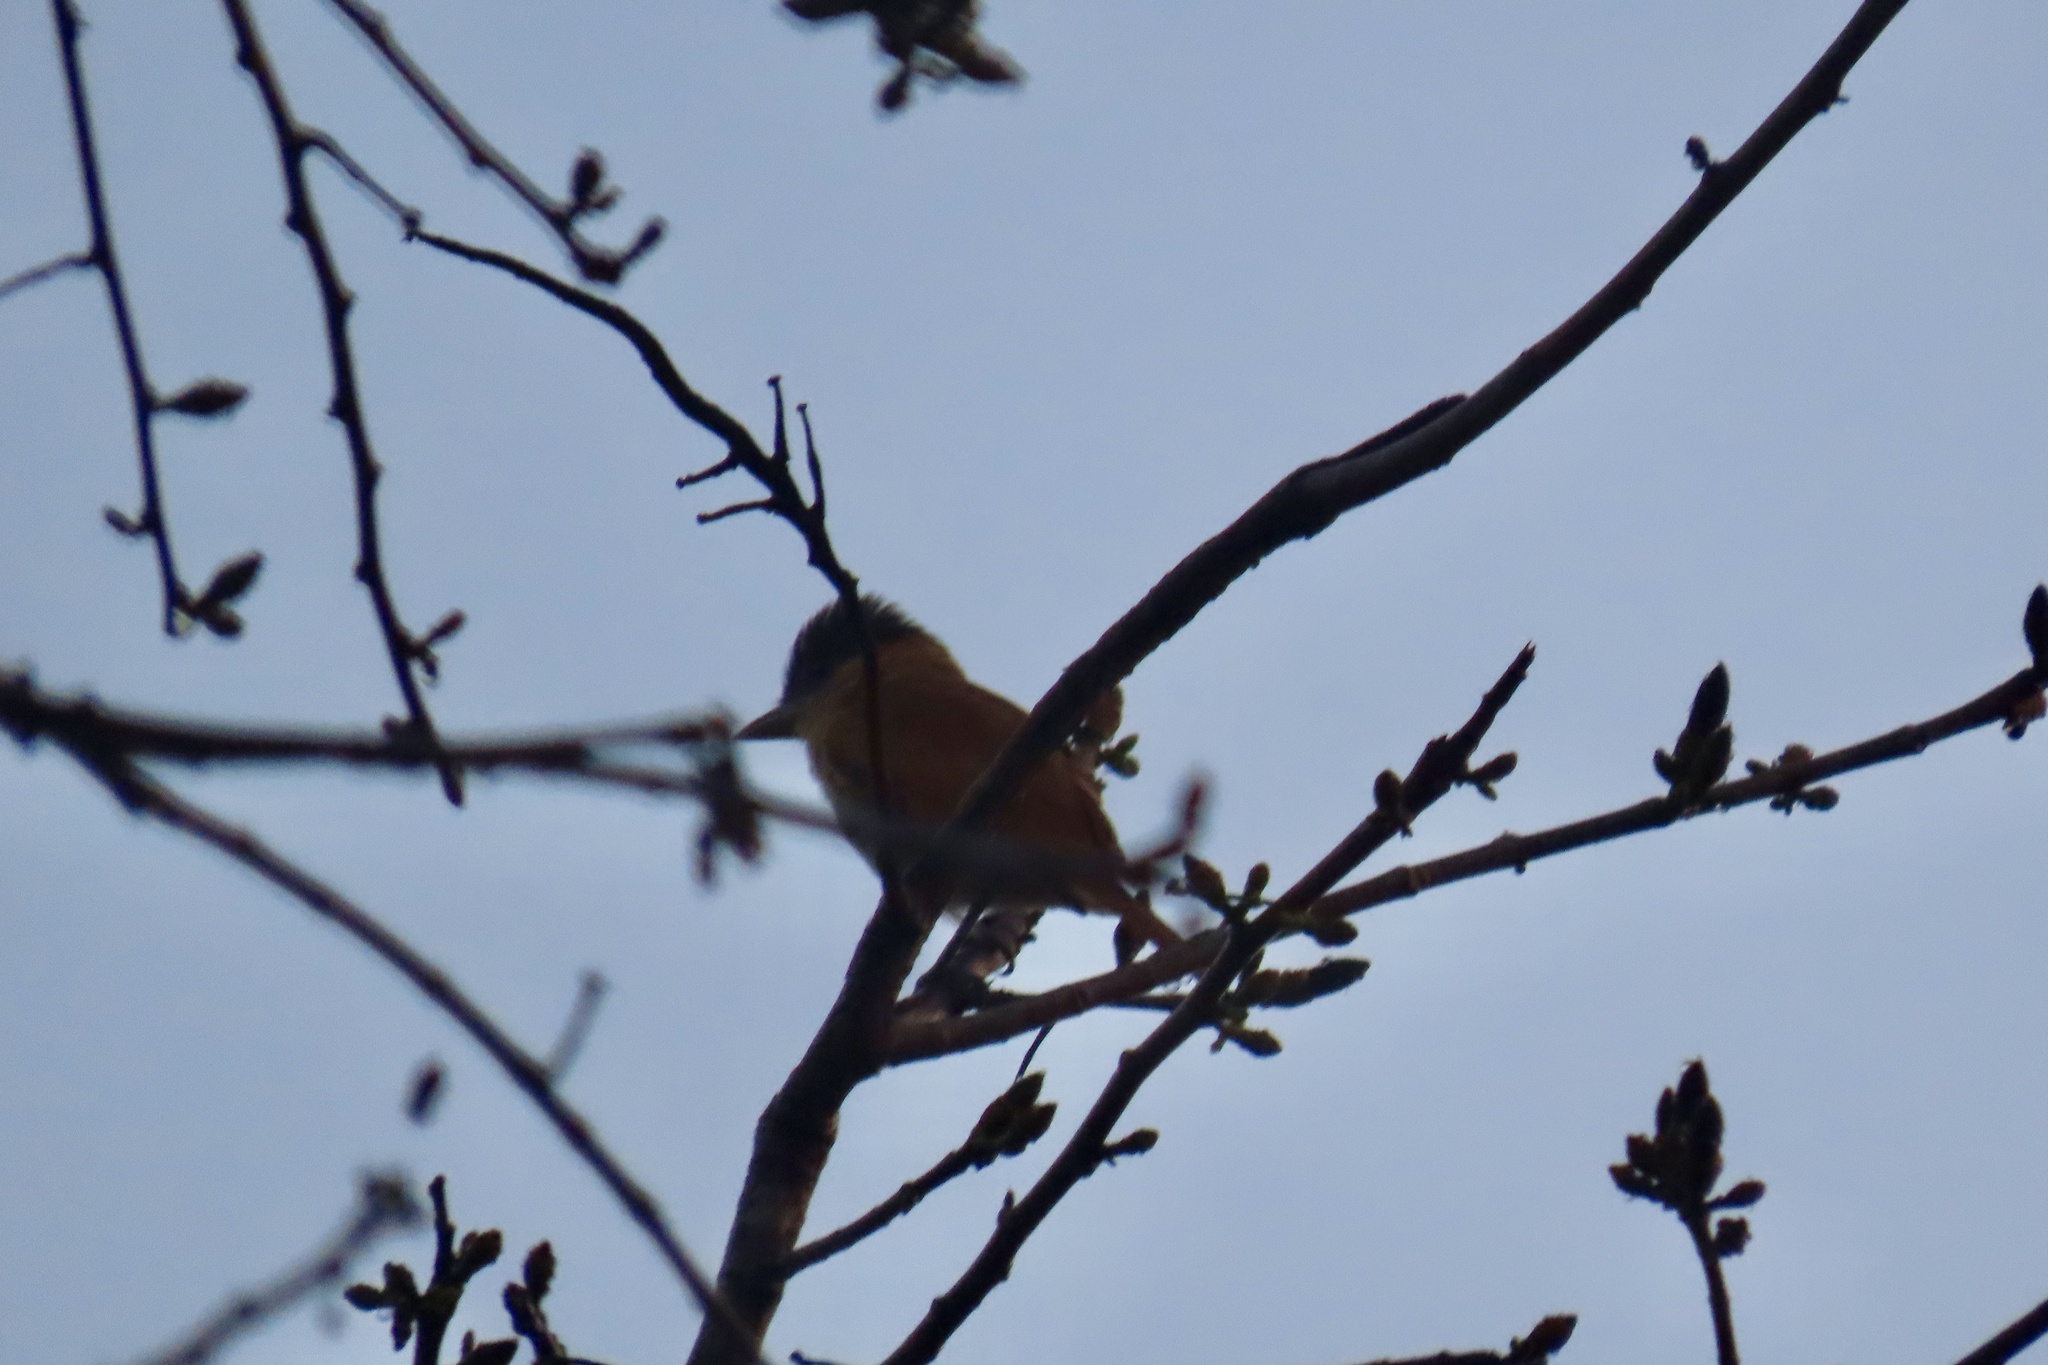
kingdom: Animalia
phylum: Chordata
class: Aves
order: Passeriformes
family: Cotingidae
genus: Pachyramphus
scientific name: Pachyramphus aglaiae
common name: Rose-throated becard
